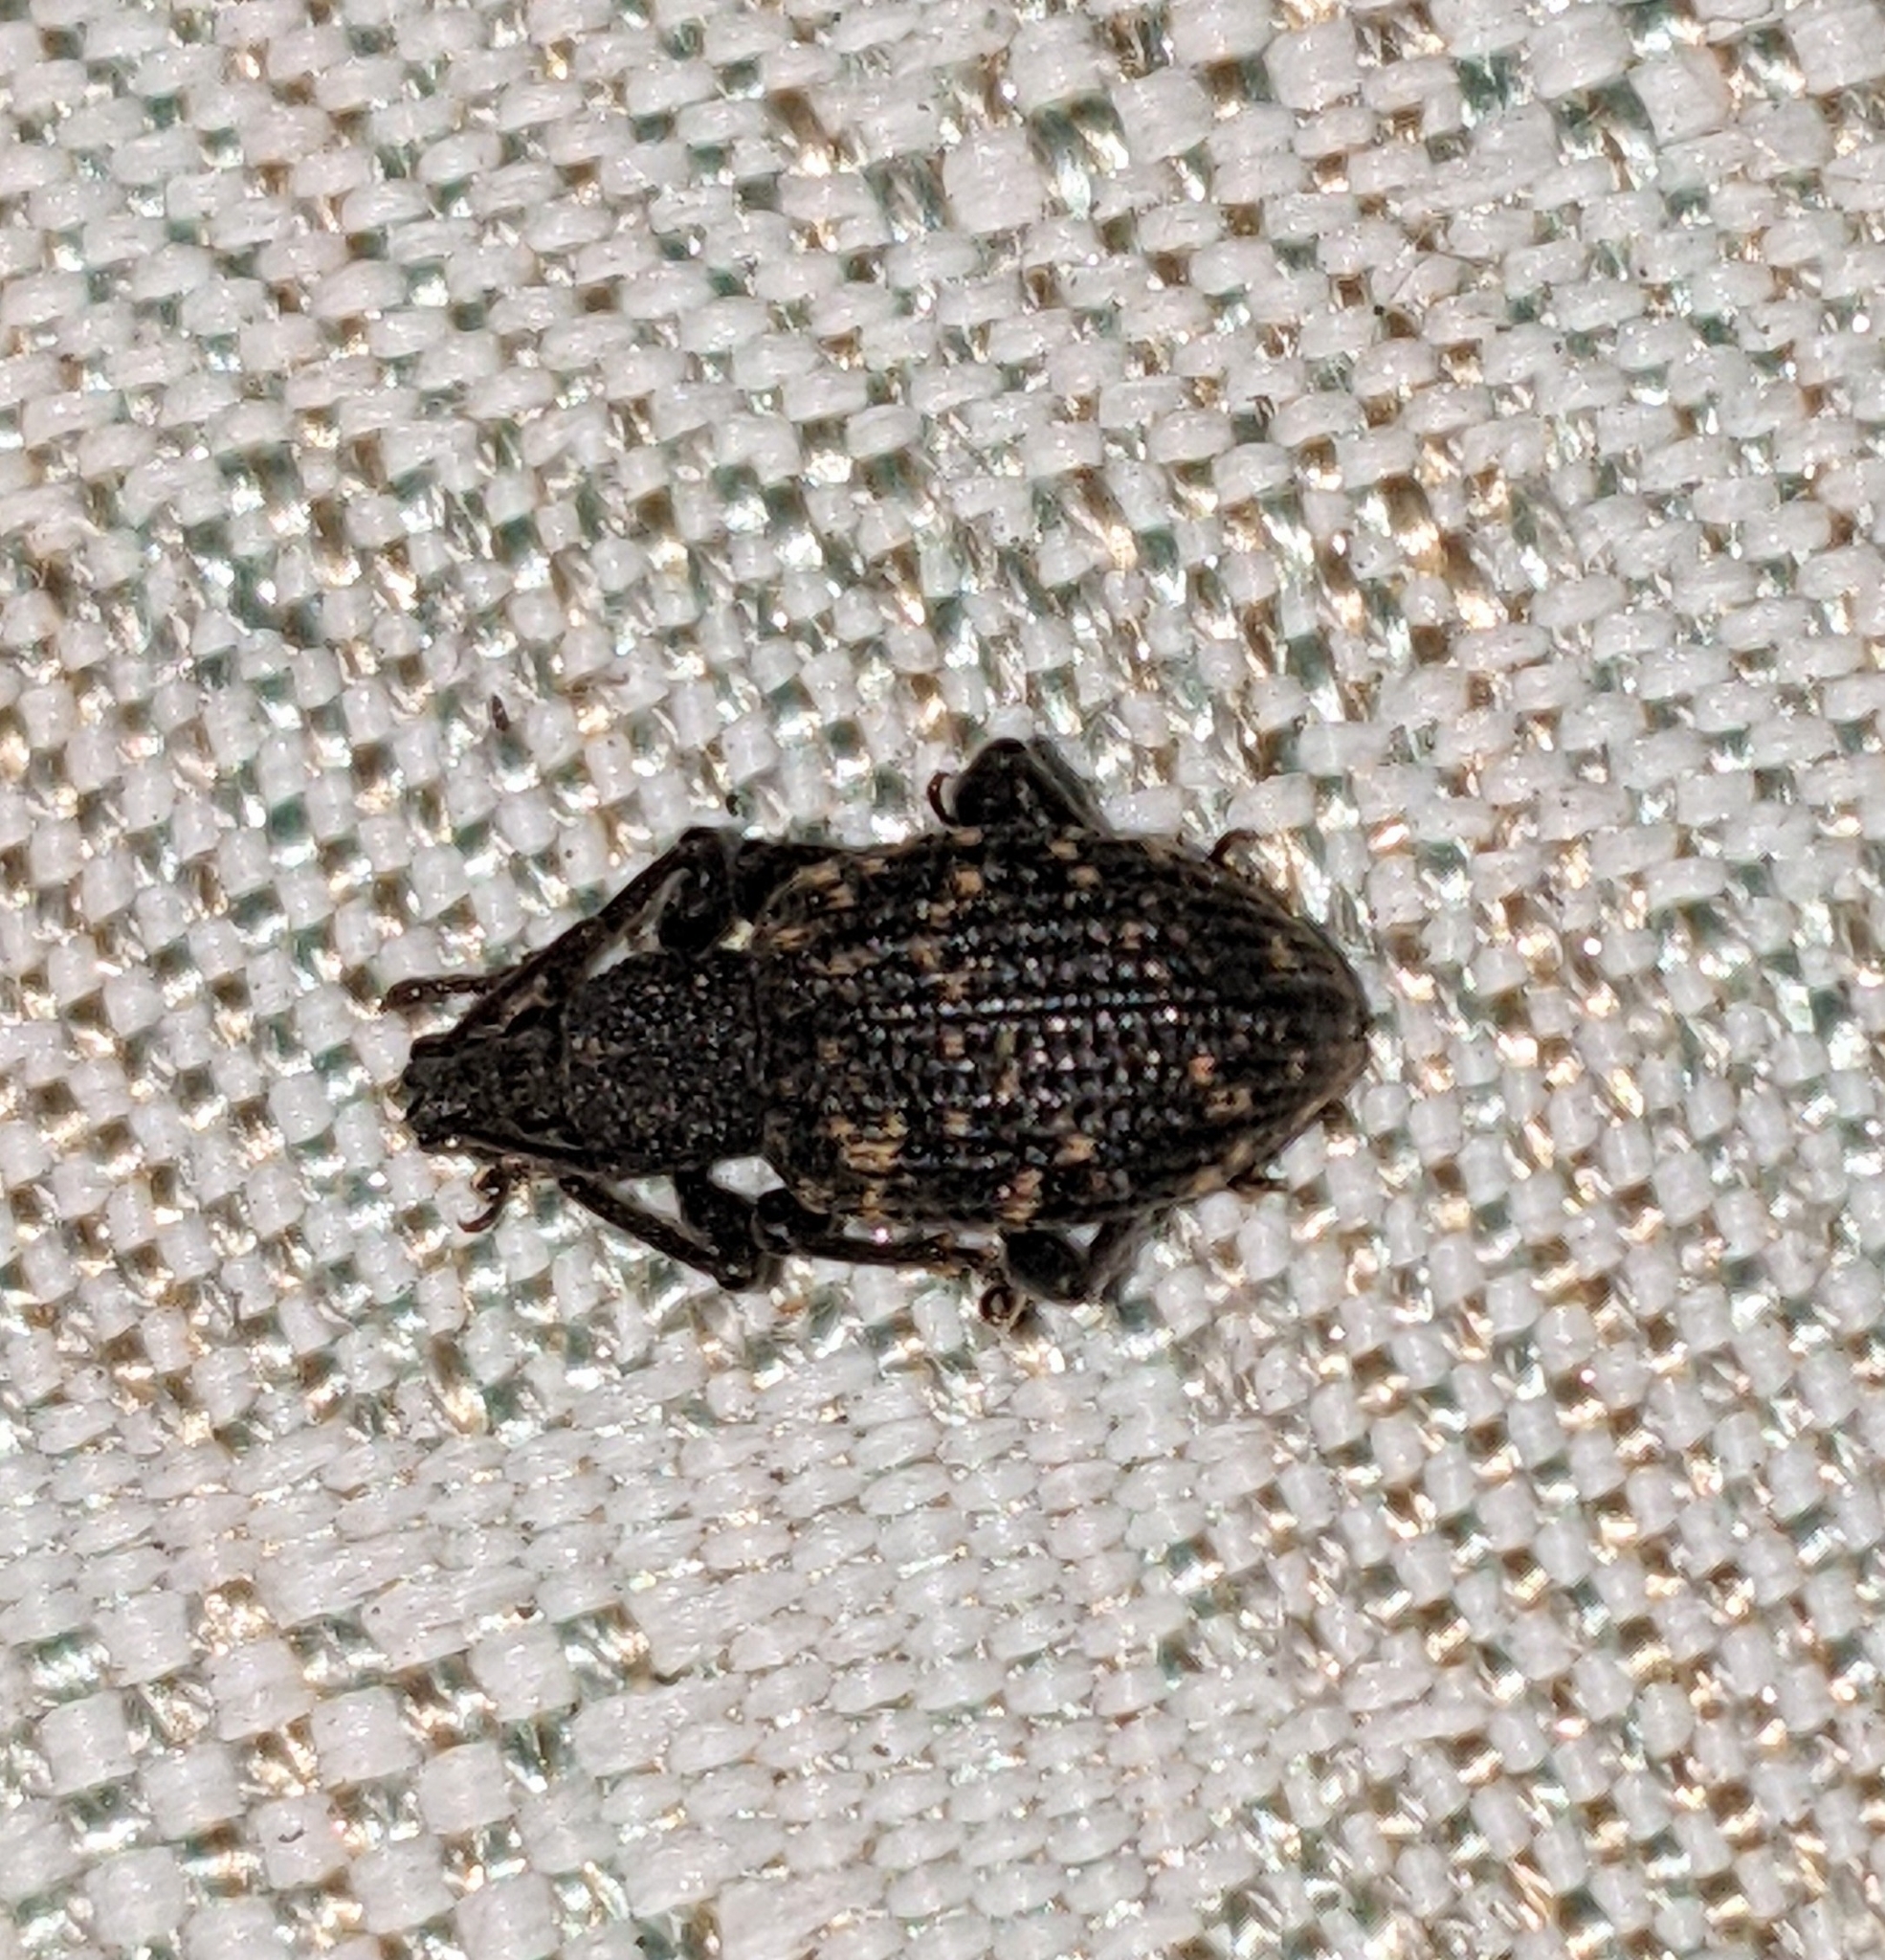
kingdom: Animalia
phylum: Arthropoda
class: Insecta
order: Coleoptera
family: Curculionidae
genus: Otiorhynchus
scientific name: Otiorhynchus sulcatus
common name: Black vine weevil
